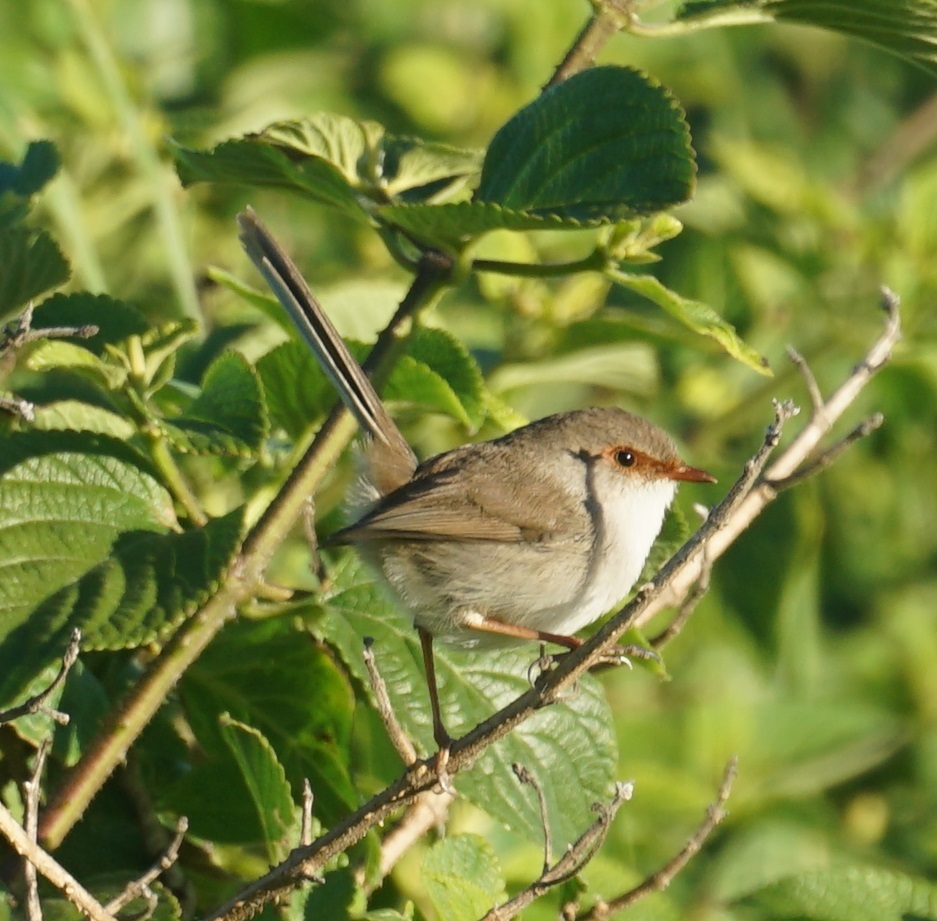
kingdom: Animalia
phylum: Chordata
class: Aves
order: Passeriformes
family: Maluridae
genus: Malurus
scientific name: Malurus cyaneus
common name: Superb fairywren
